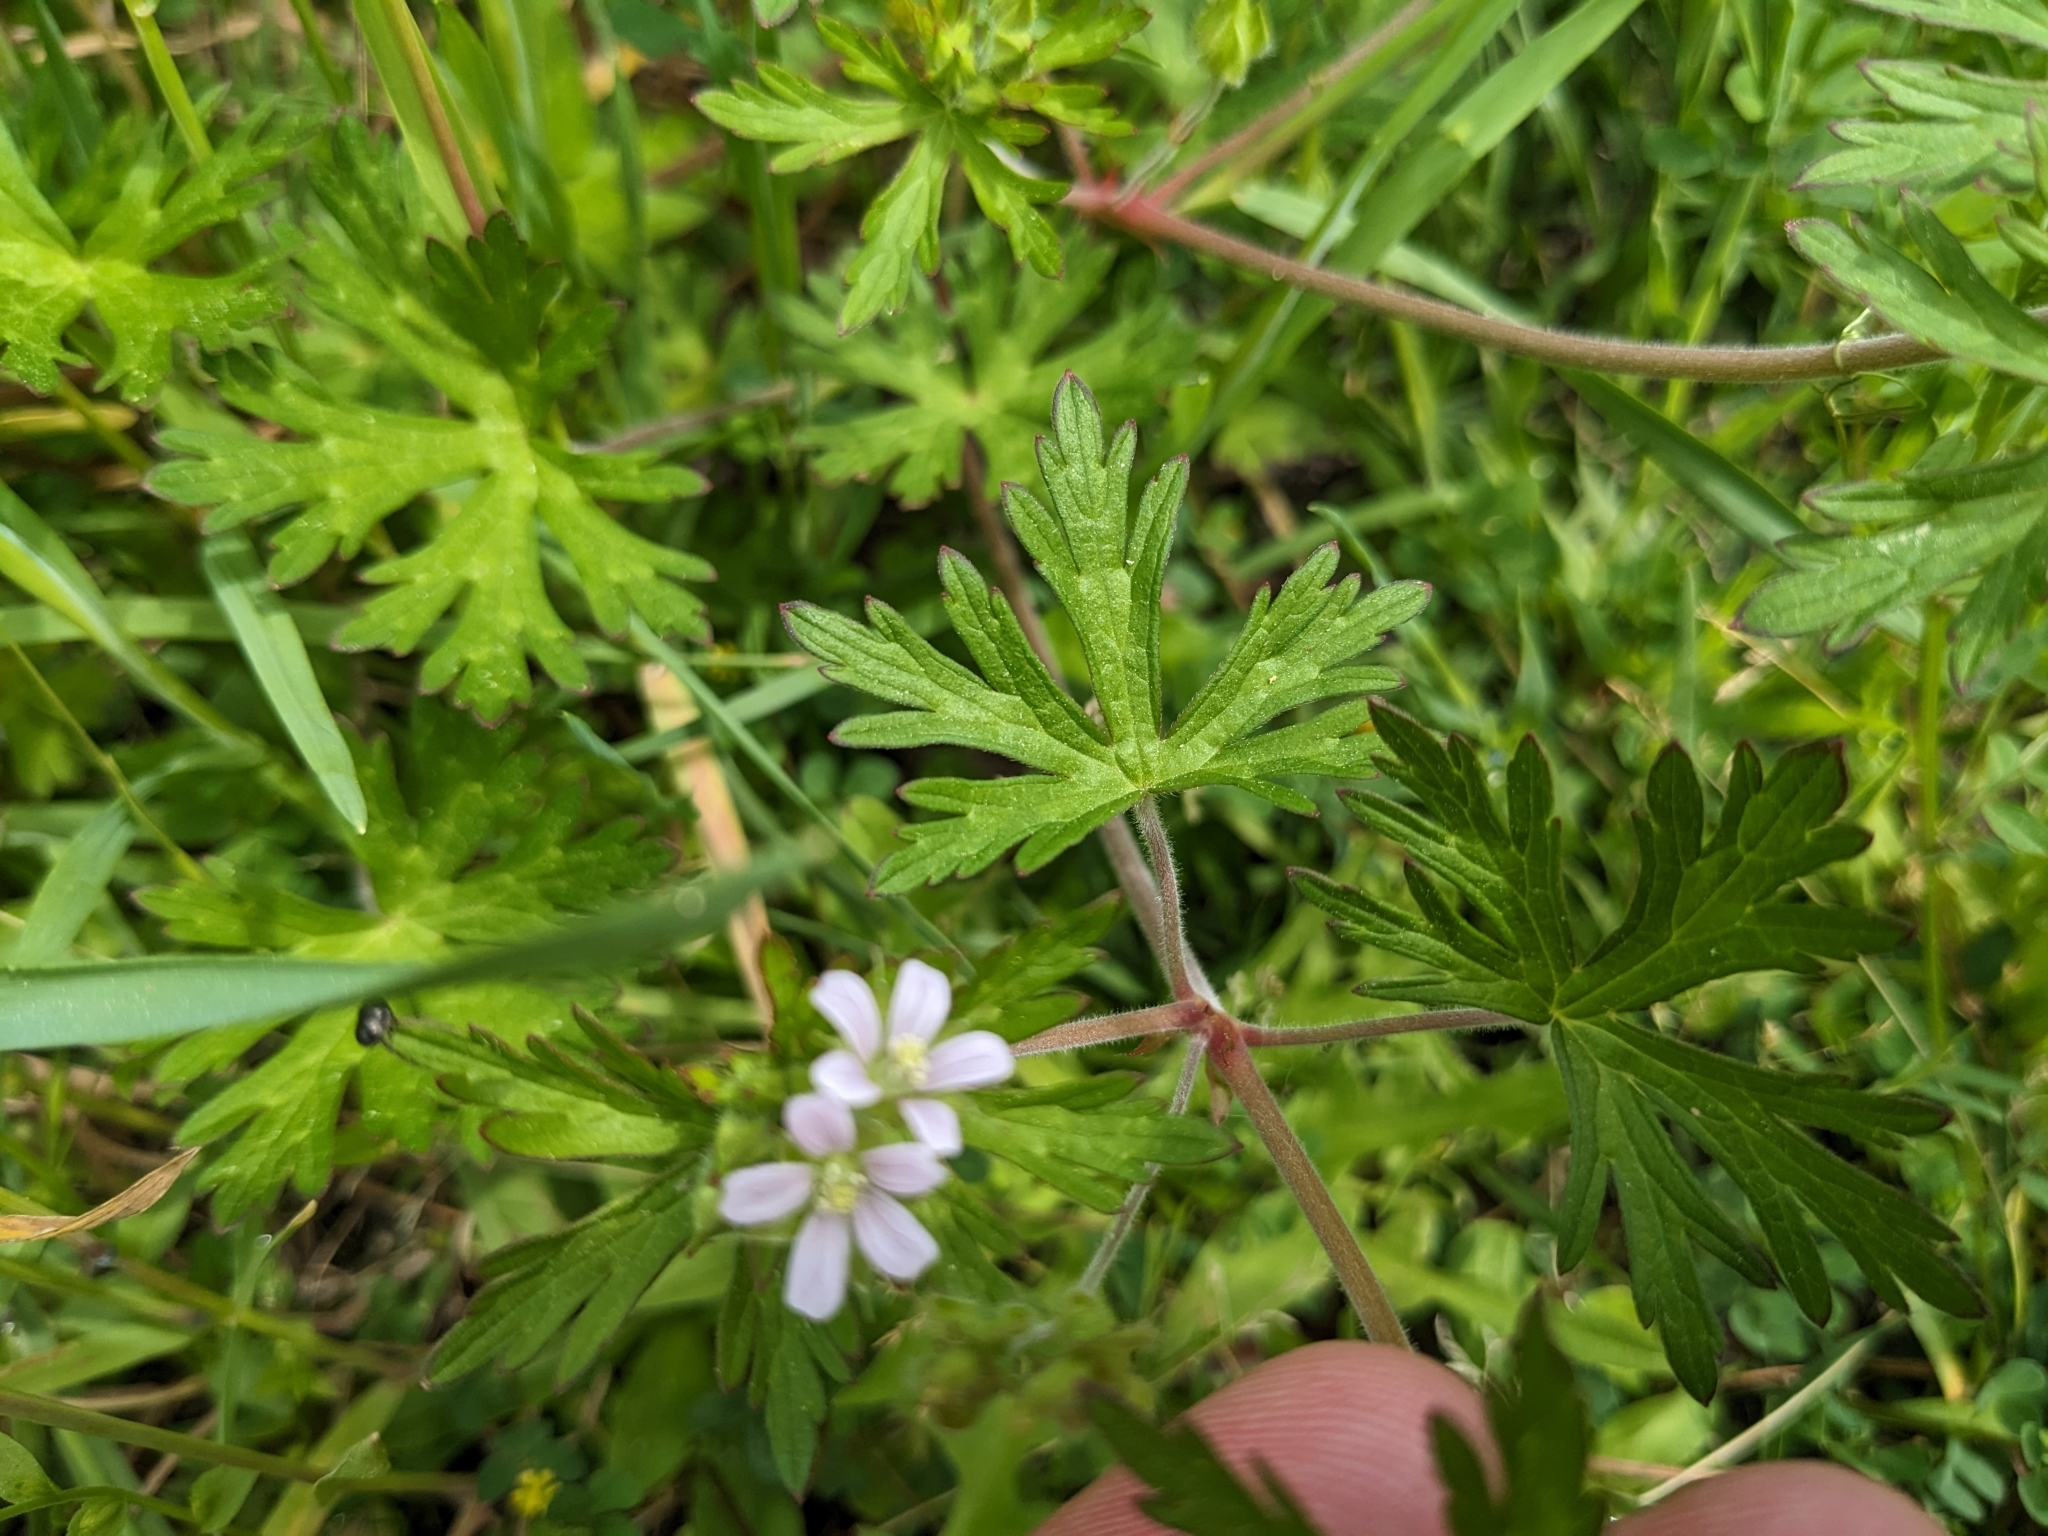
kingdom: Plantae
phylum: Tracheophyta
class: Magnoliopsida
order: Geraniales
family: Geraniaceae
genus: Geranium
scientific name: Geranium carolinianum
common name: Carolina crane's-bill
